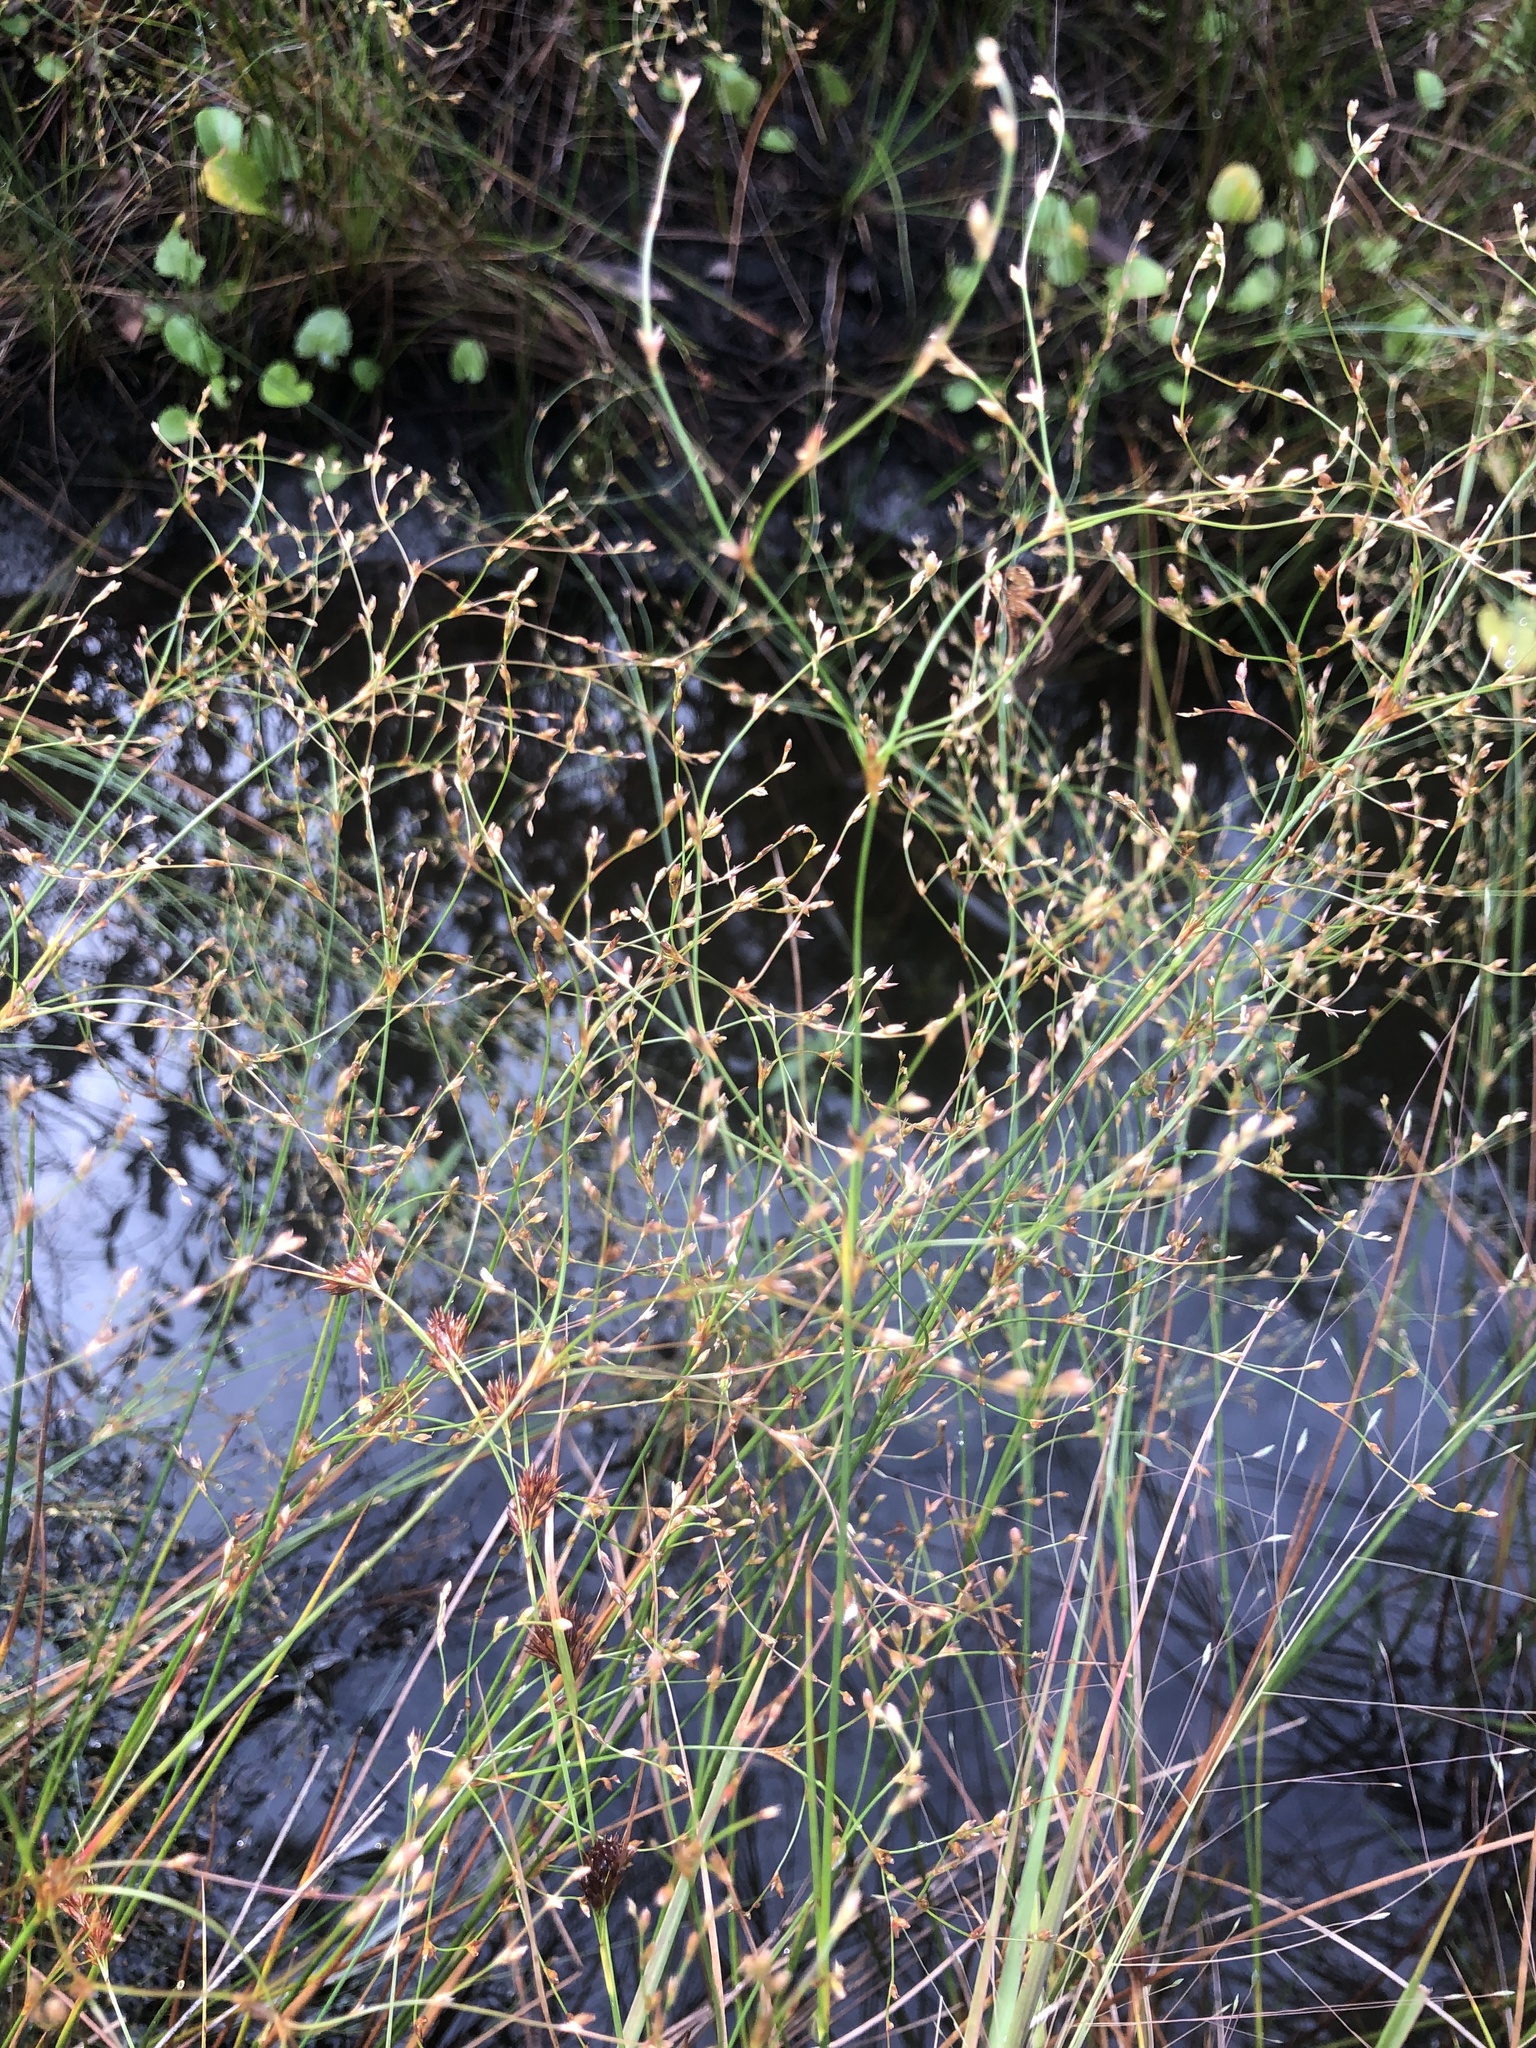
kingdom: Plantae
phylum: Tracheophyta
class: Liliopsida
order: Poales
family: Juncaceae
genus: Juncus
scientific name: Juncus anthelatus
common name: Giant path rush
